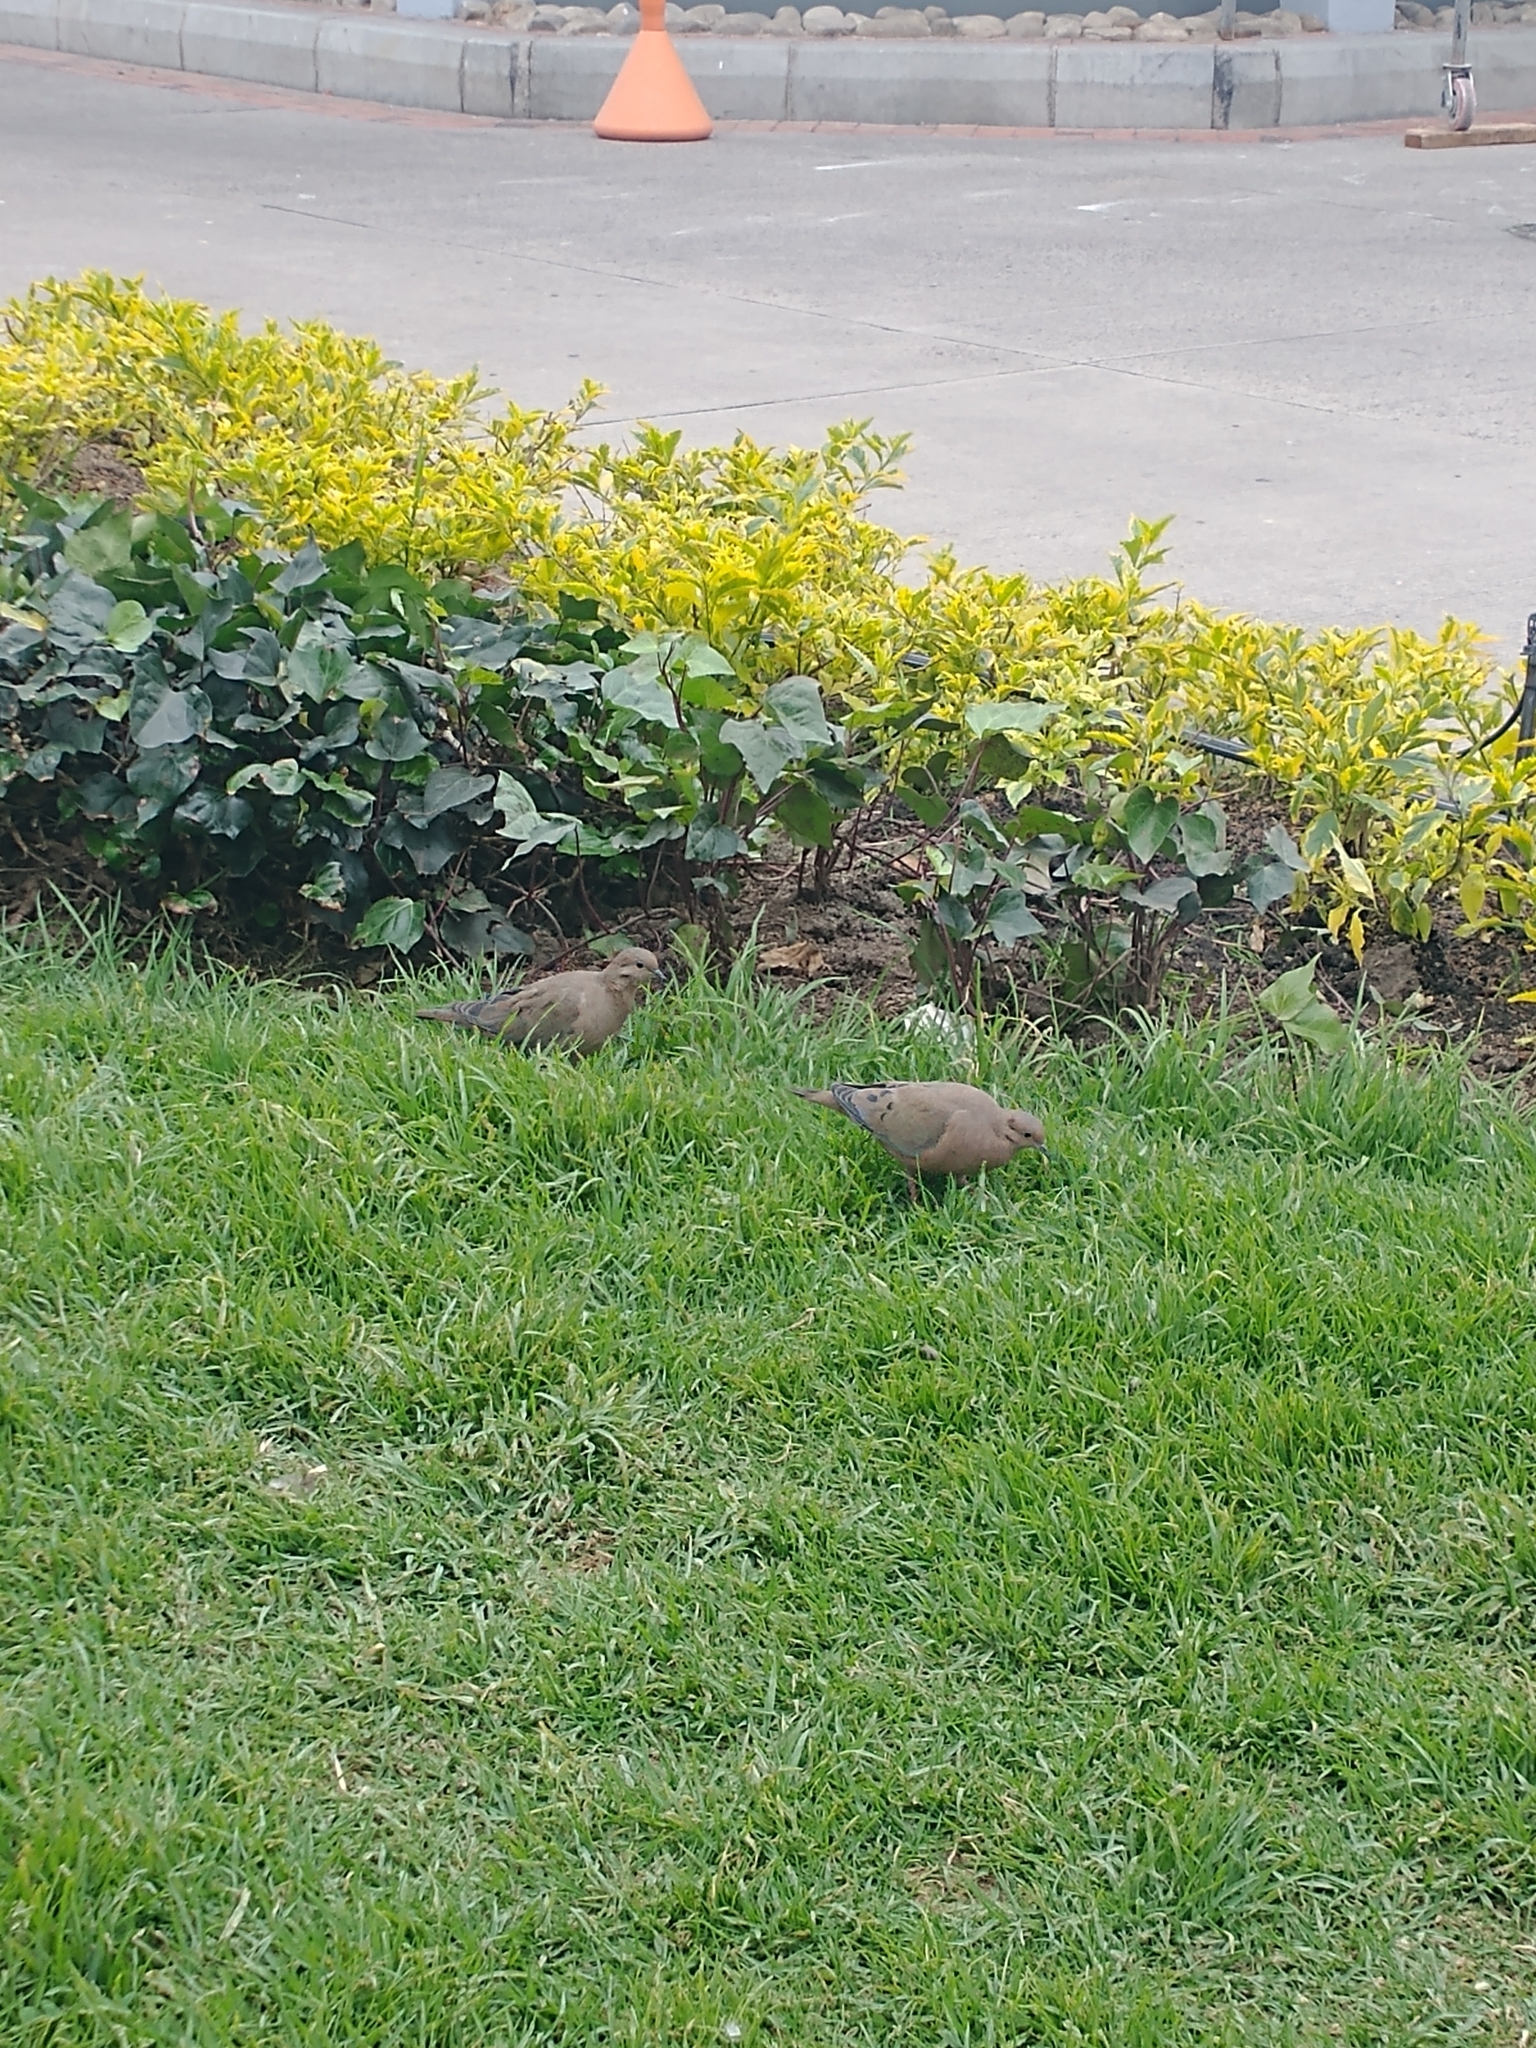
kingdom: Animalia
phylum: Chordata
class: Aves
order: Columbiformes
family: Columbidae
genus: Zenaida
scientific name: Zenaida auriculata
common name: Eared dove
